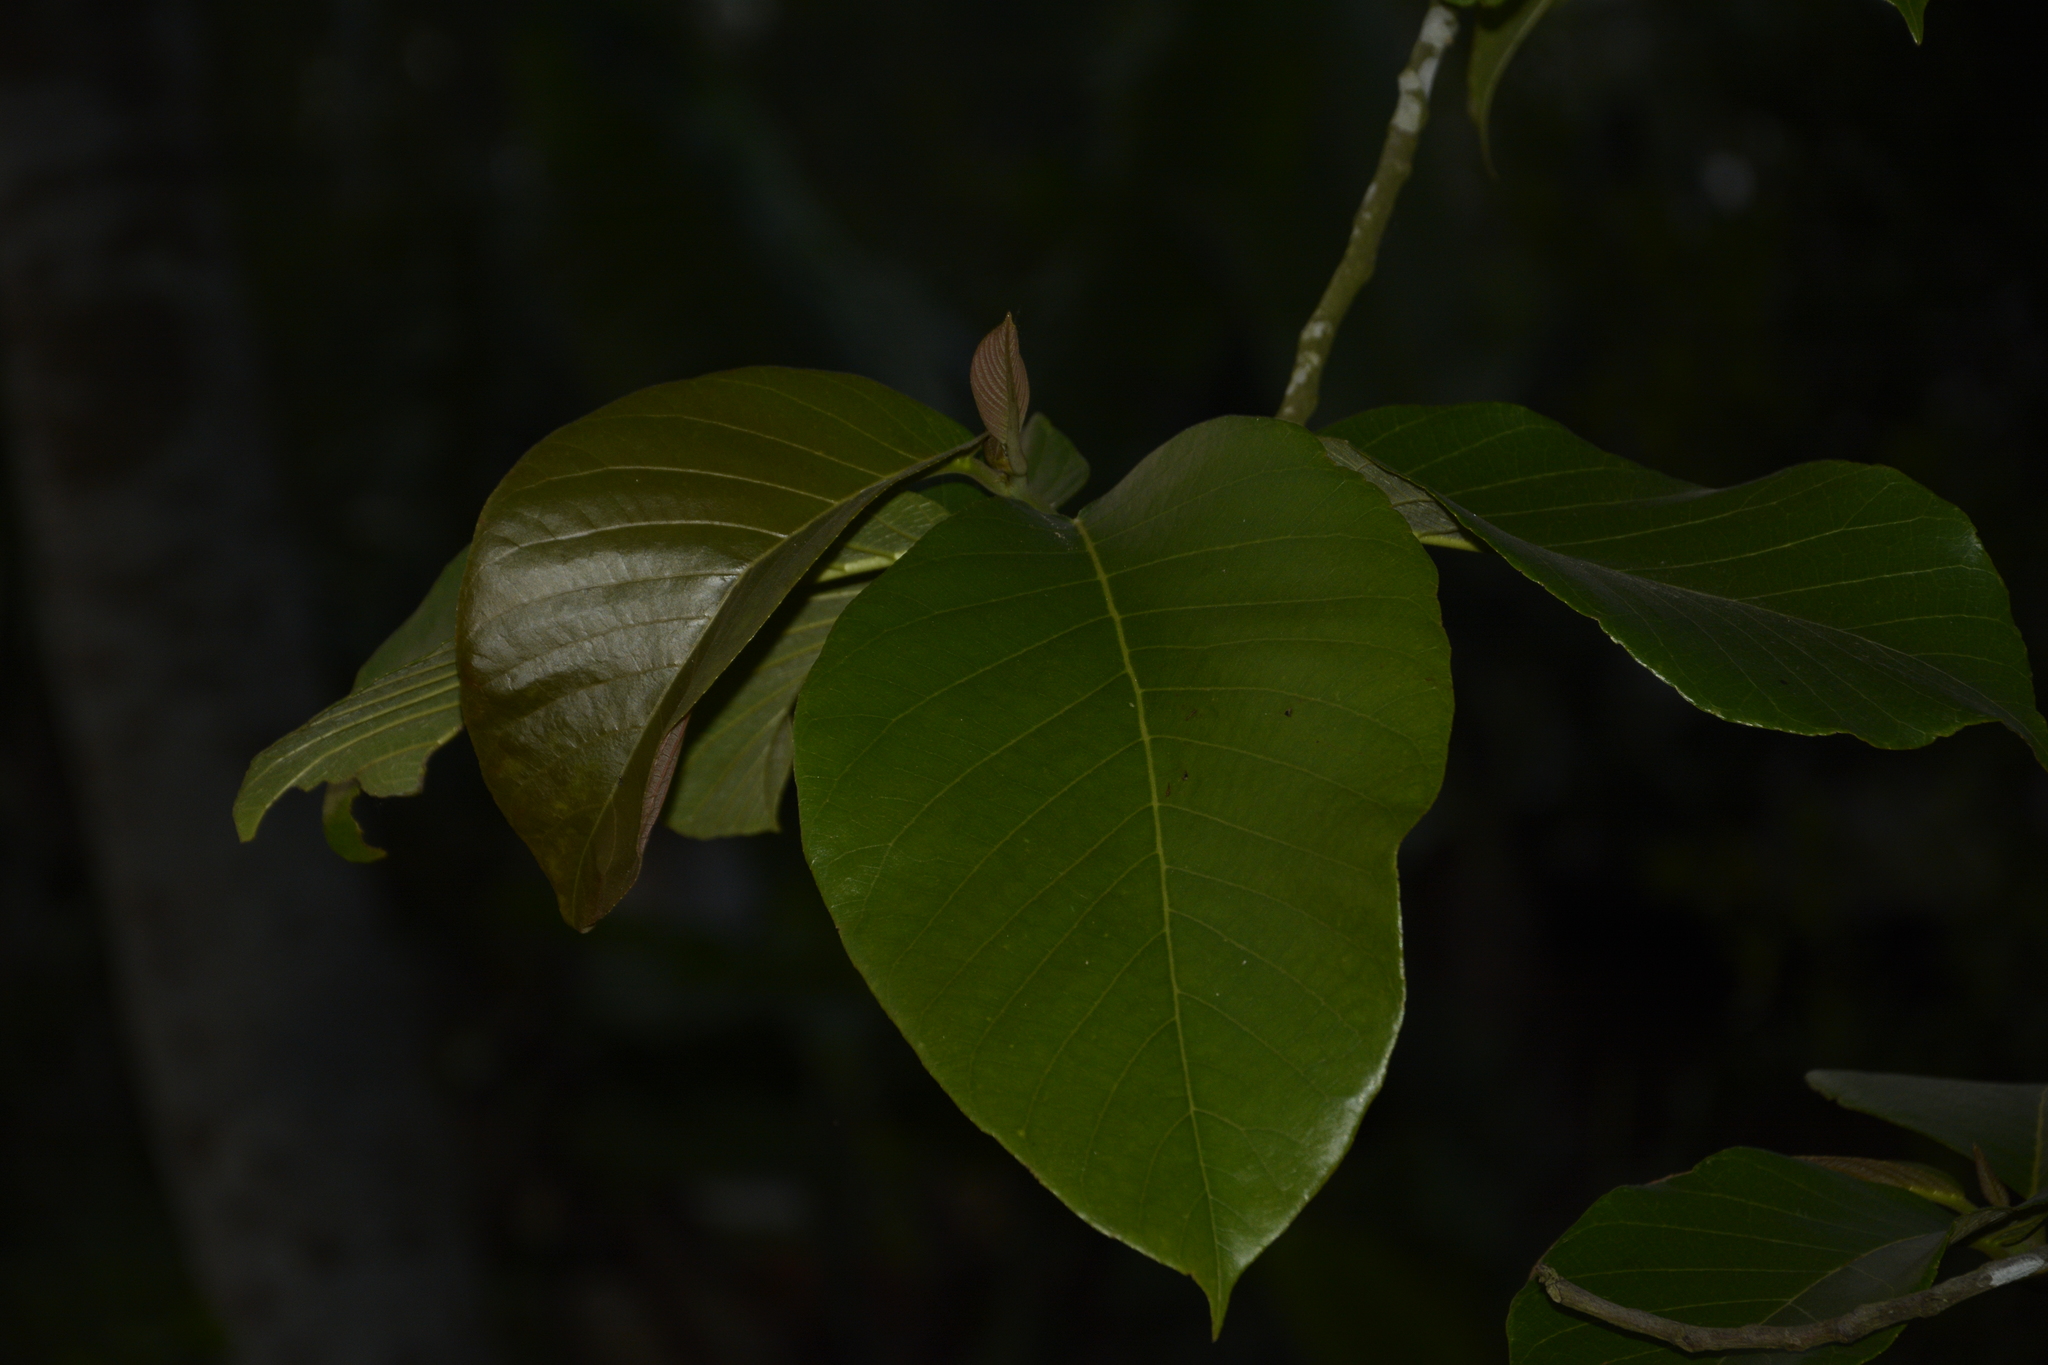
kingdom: Plantae
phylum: Tracheophyta
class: Magnoliopsida
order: Rosales
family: Moraceae
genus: Artocarpus
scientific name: Artocarpus lacucha
